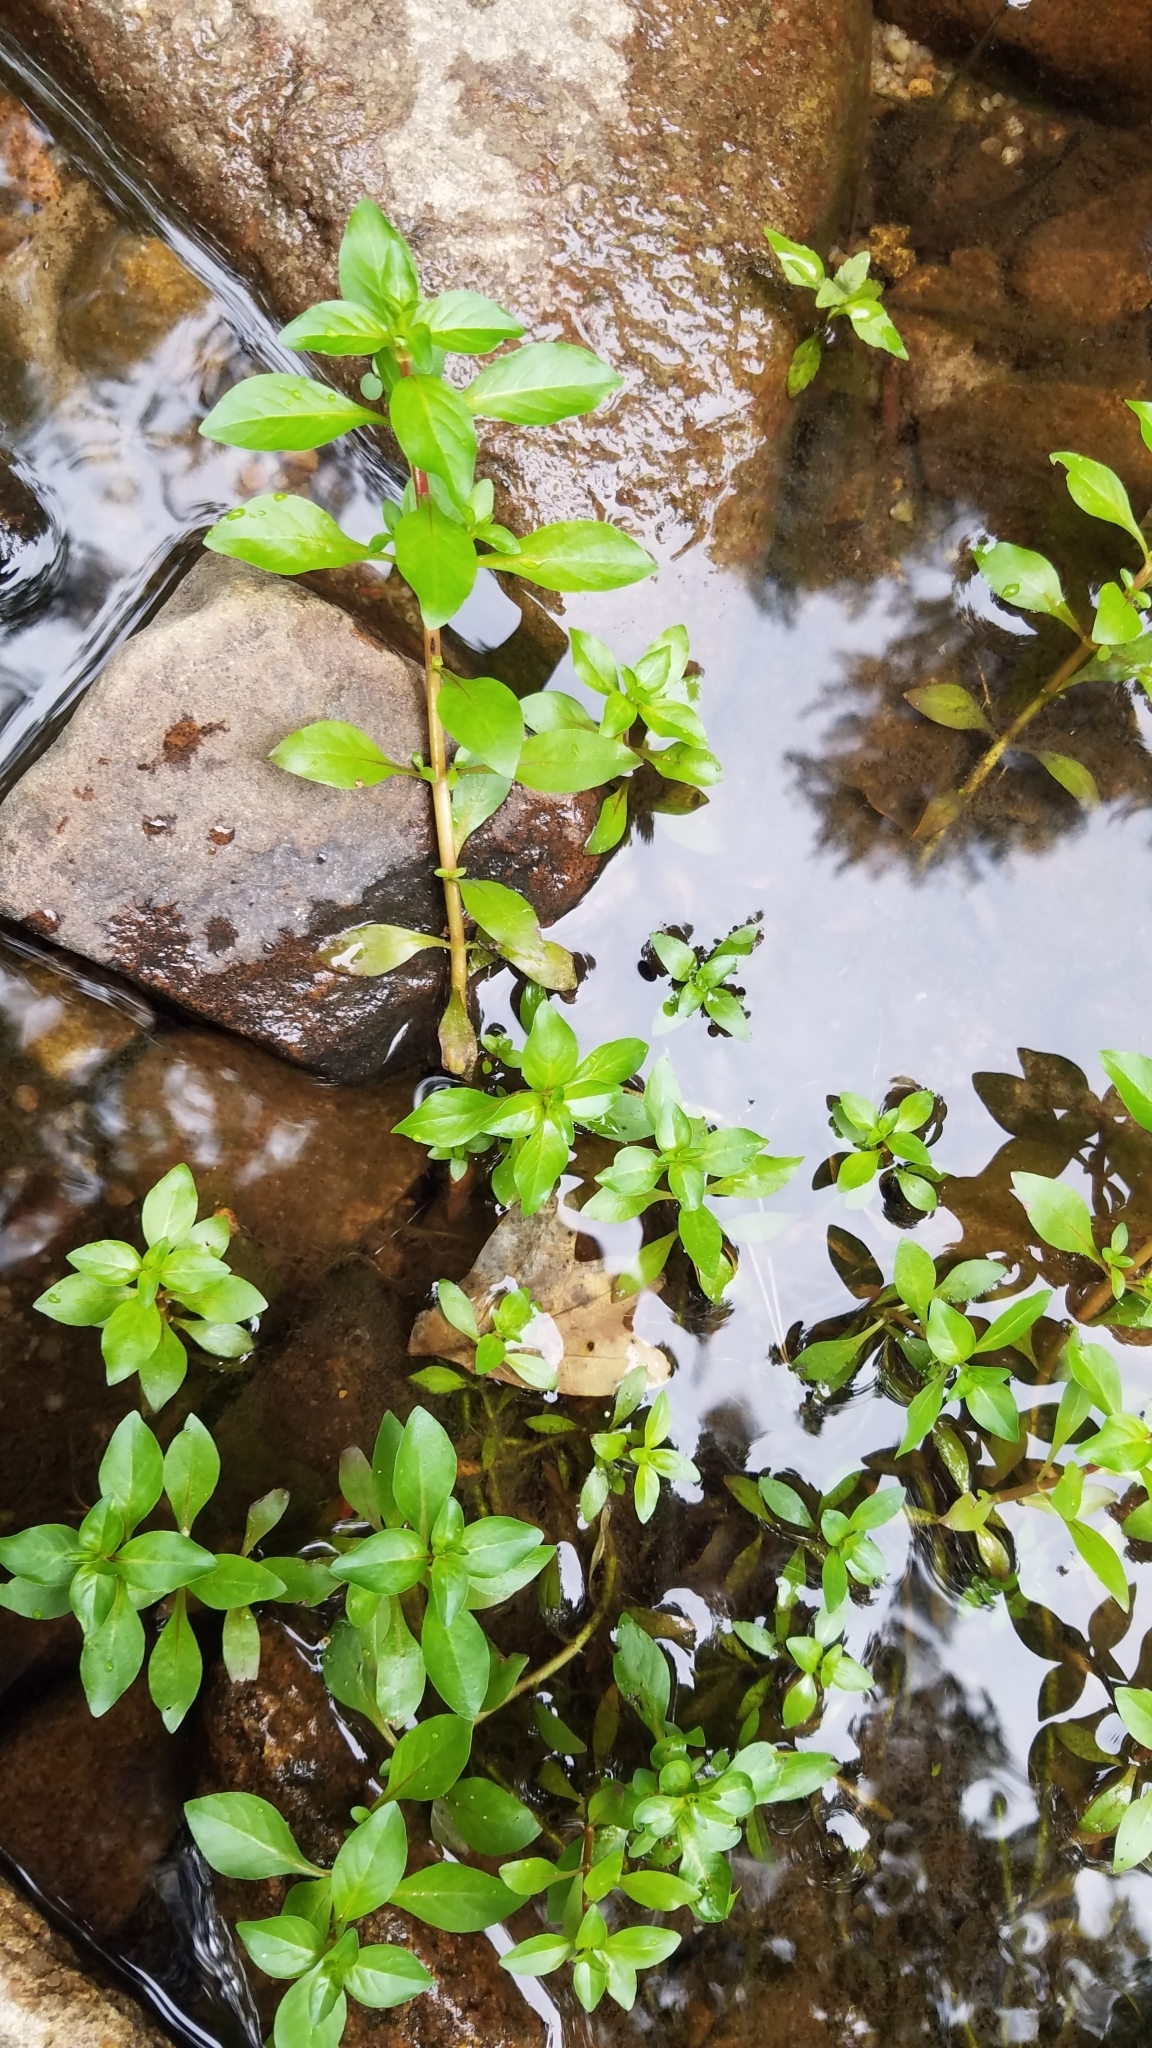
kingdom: Plantae
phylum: Tracheophyta
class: Magnoliopsida
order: Myrtales
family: Onagraceae
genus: Ludwigia
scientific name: Ludwigia palustris
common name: Hampshire-purslane
